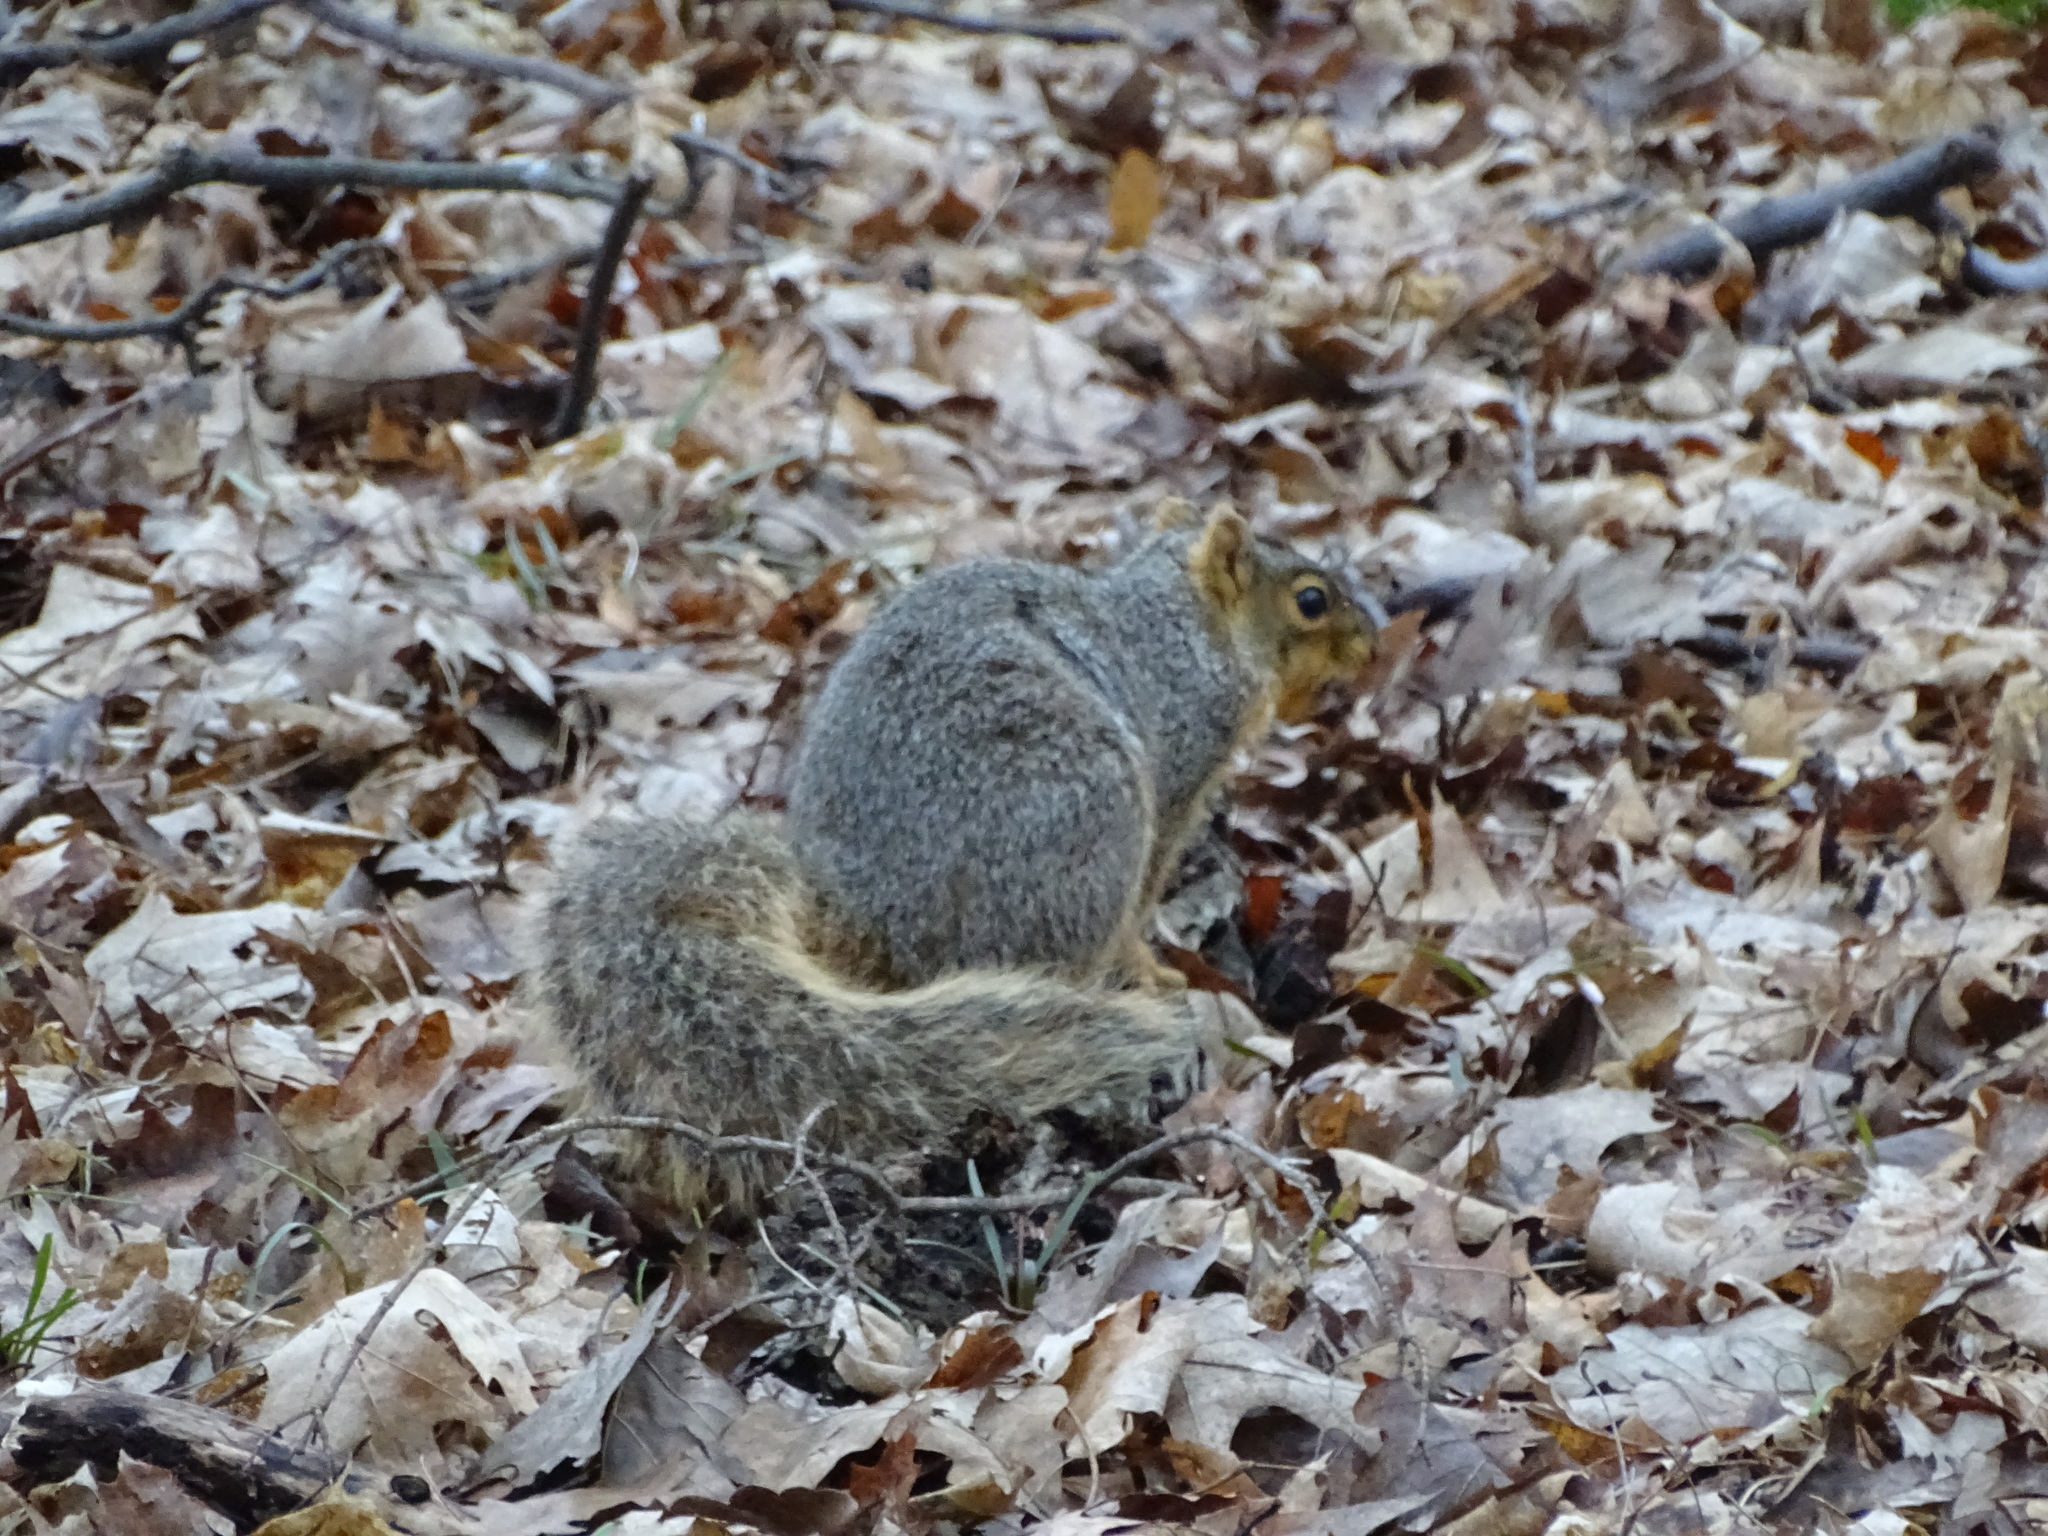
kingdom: Animalia
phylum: Chordata
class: Mammalia
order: Rodentia
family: Sciuridae
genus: Sciurus
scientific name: Sciurus niger
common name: Fox squirrel
